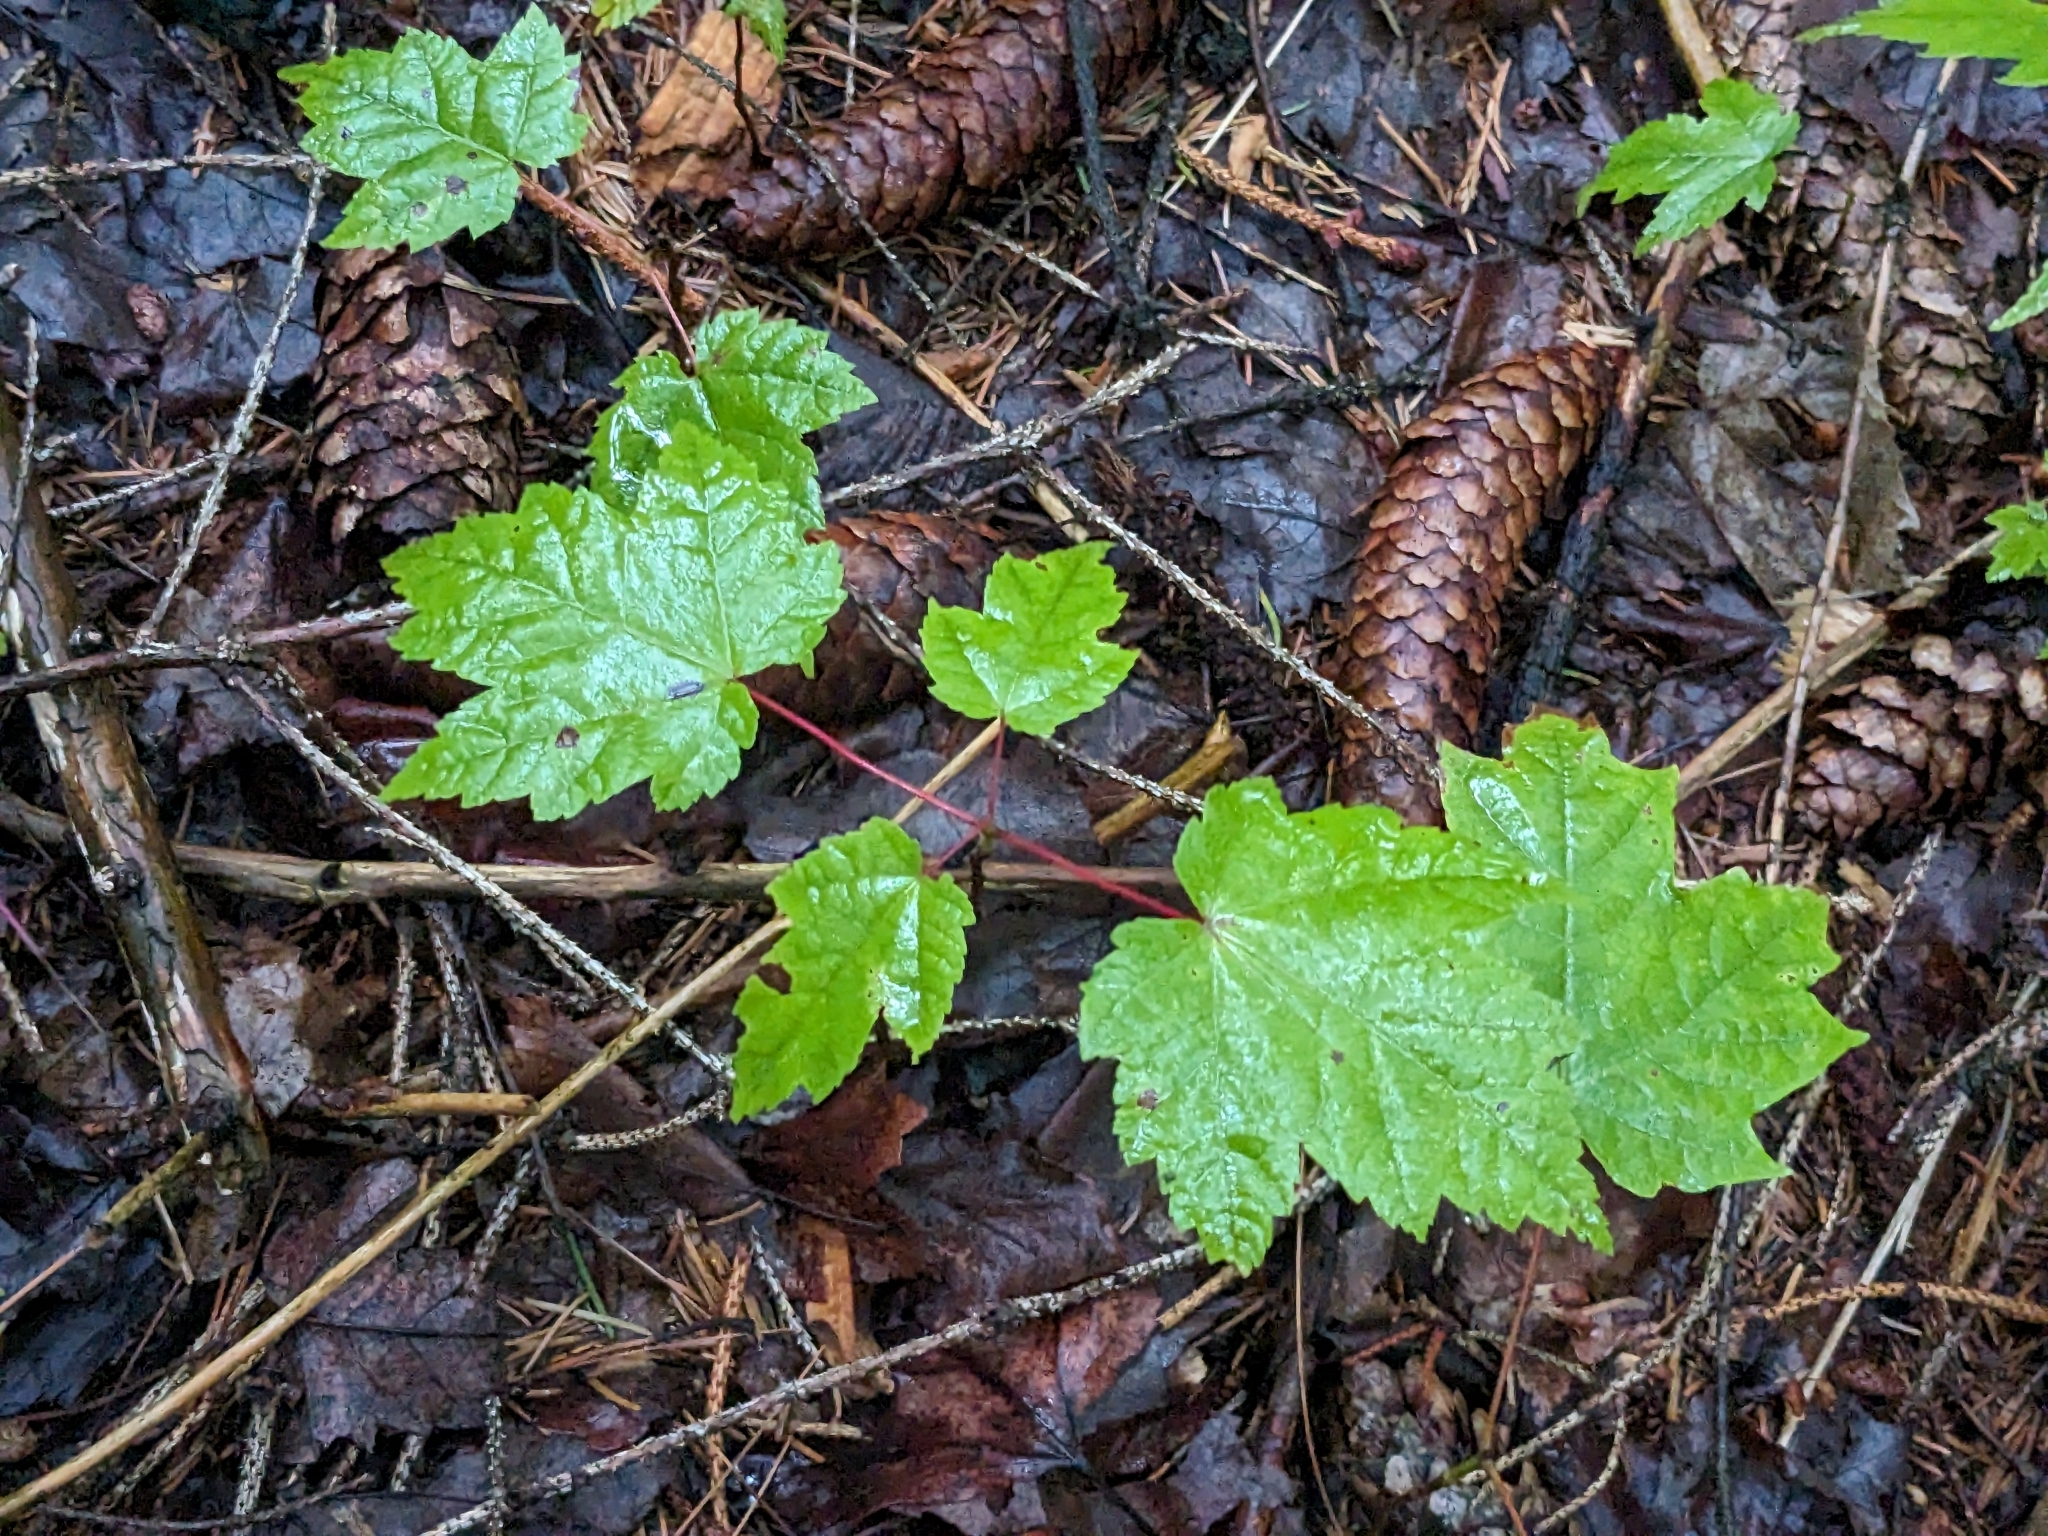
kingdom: Plantae
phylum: Tracheophyta
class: Magnoliopsida
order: Sapindales
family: Sapindaceae
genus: Acer
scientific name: Acer rubrum
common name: Red maple
